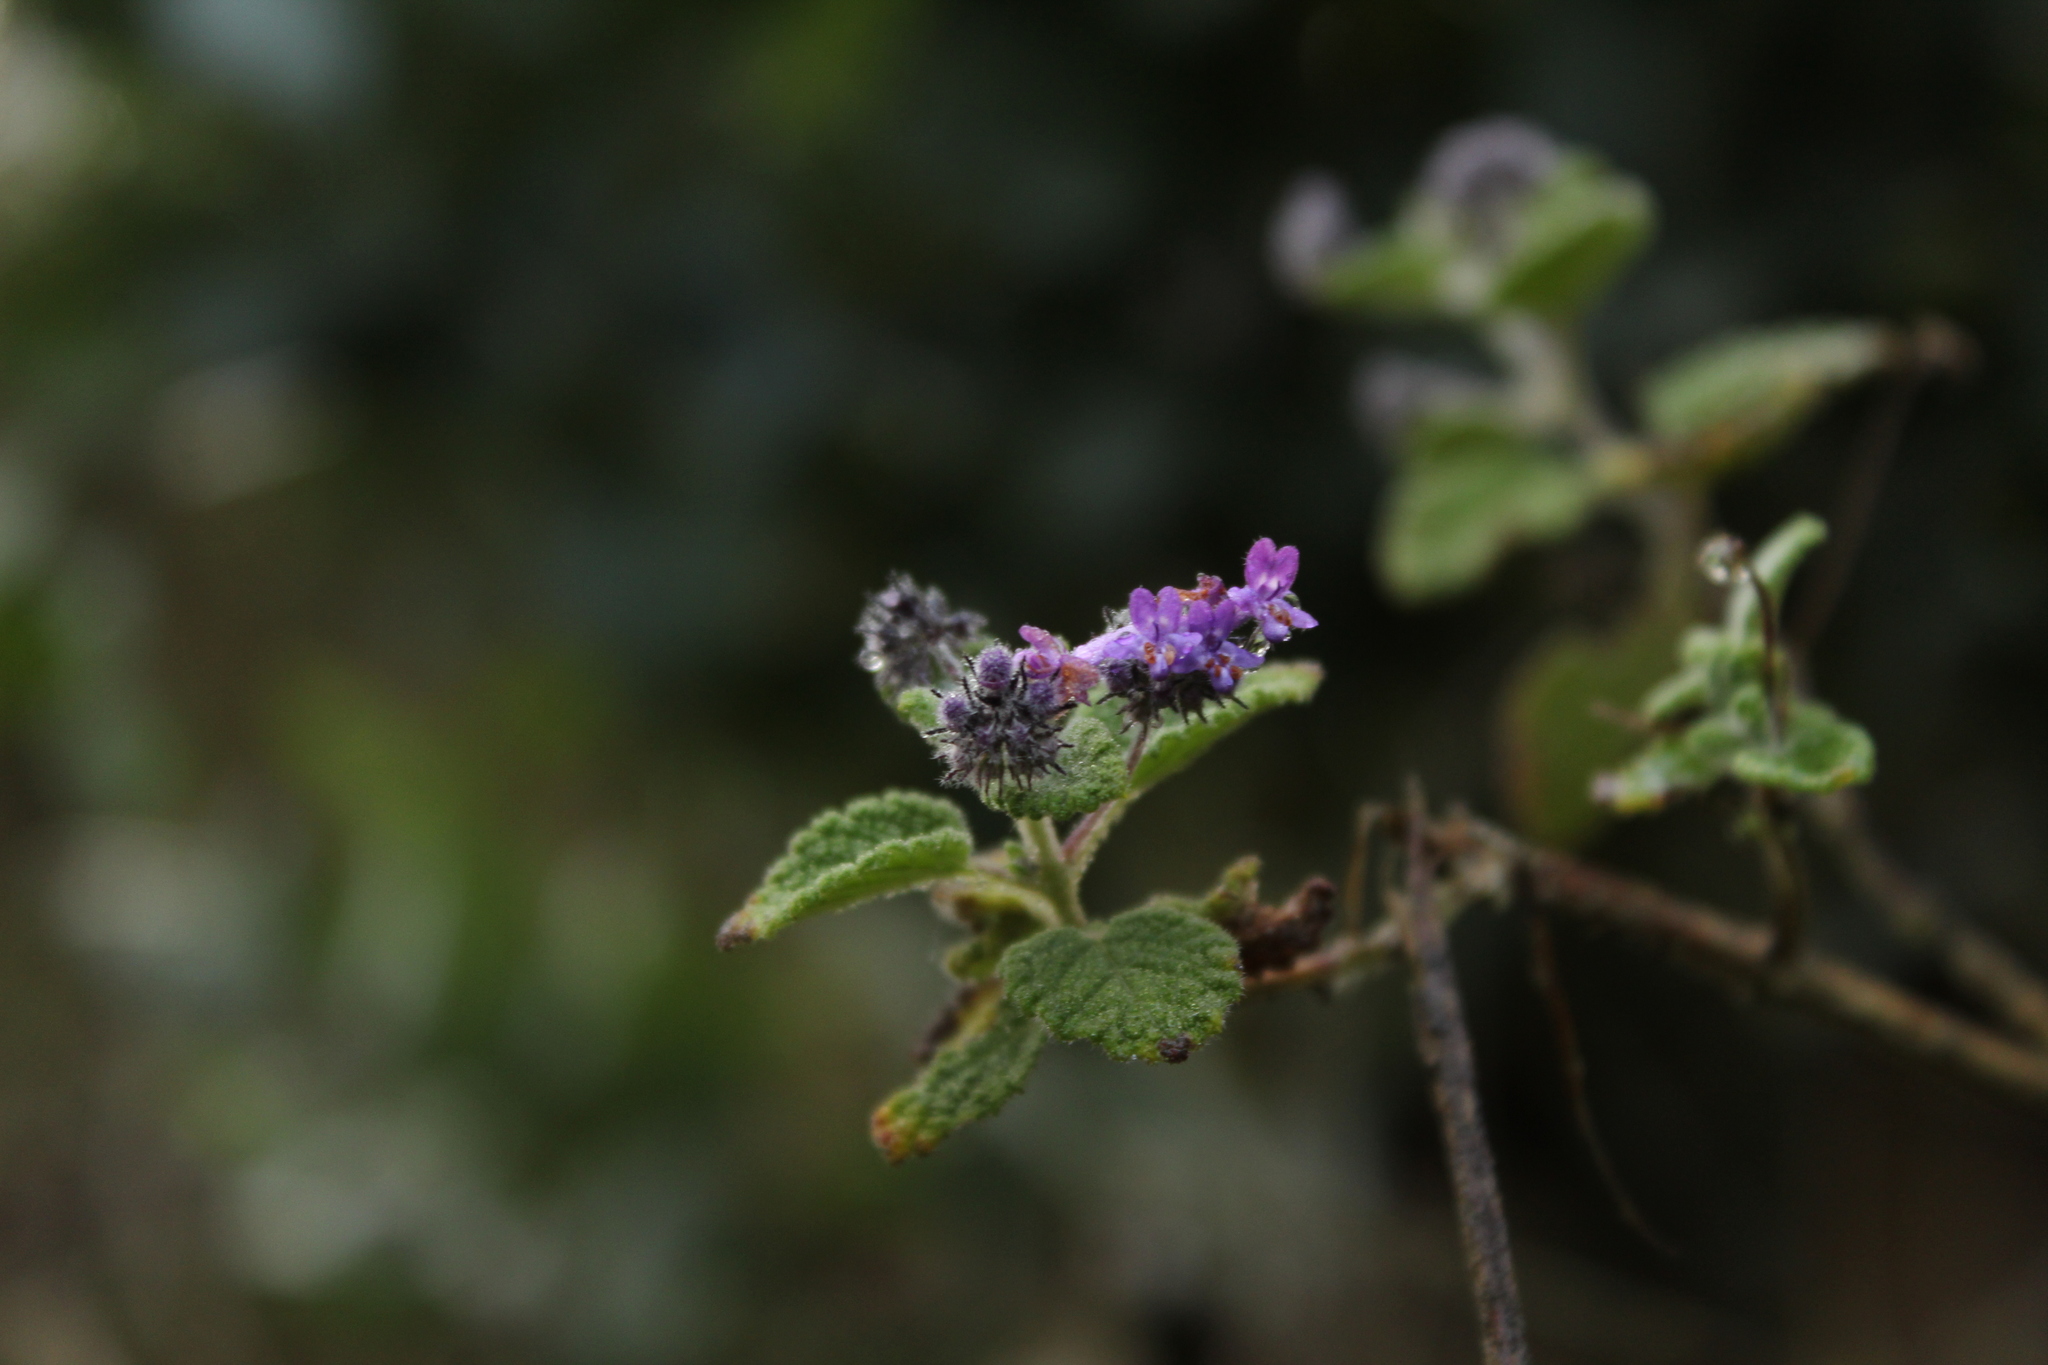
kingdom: Plantae
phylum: Tracheophyta
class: Magnoliopsida
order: Lamiales
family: Lamiaceae
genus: Mesosphaerum
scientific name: Mesosphaerum perbullatum
